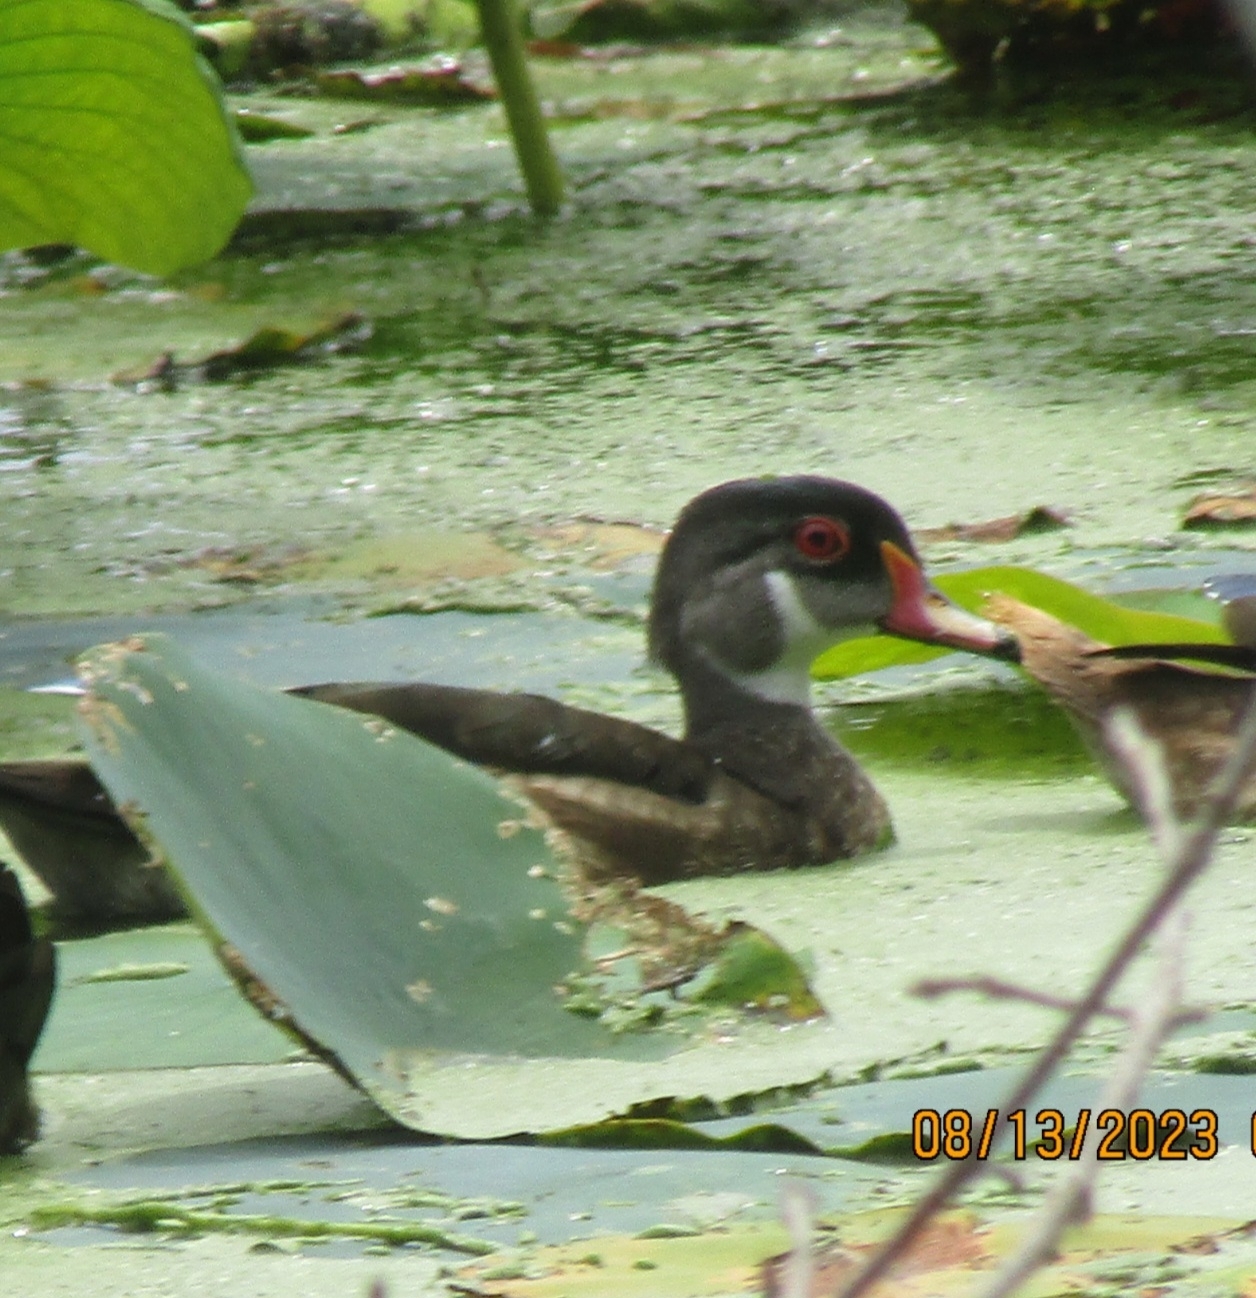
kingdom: Animalia
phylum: Chordata
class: Aves
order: Anseriformes
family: Anatidae
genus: Aix
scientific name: Aix sponsa
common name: Wood duck
